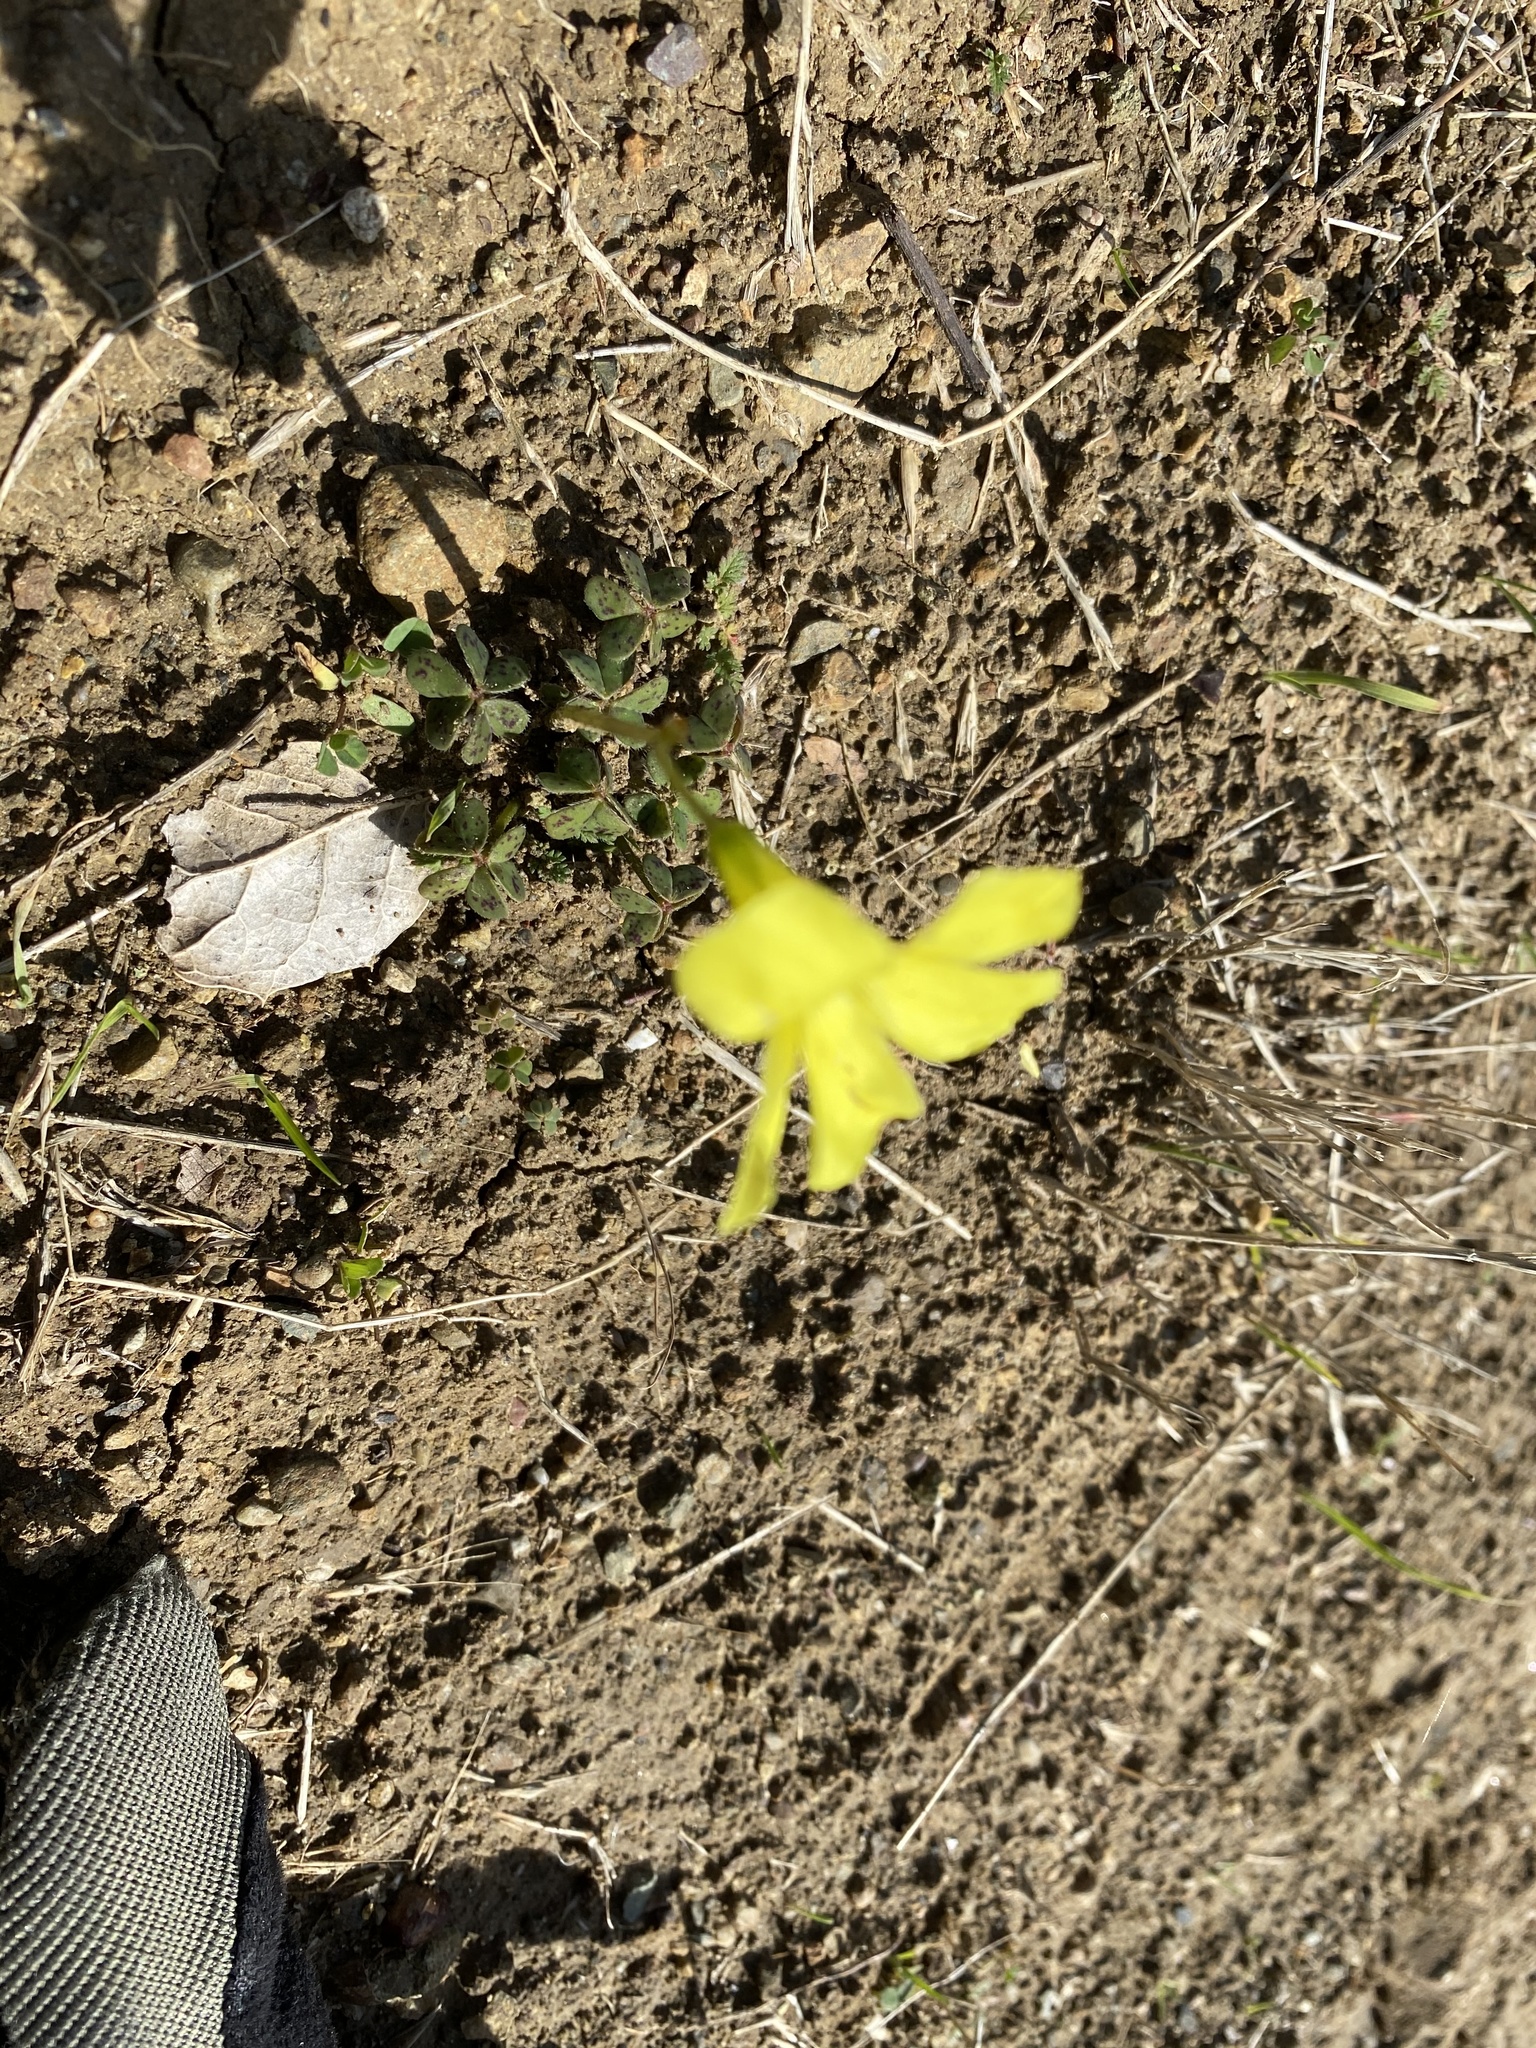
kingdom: Plantae
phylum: Tracheophyta
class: Magnoliopsida
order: Oxalidales
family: Oxalidaceae
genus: Oxalis
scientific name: Oxalis pes-caprae
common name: Bermuda-buttercup
